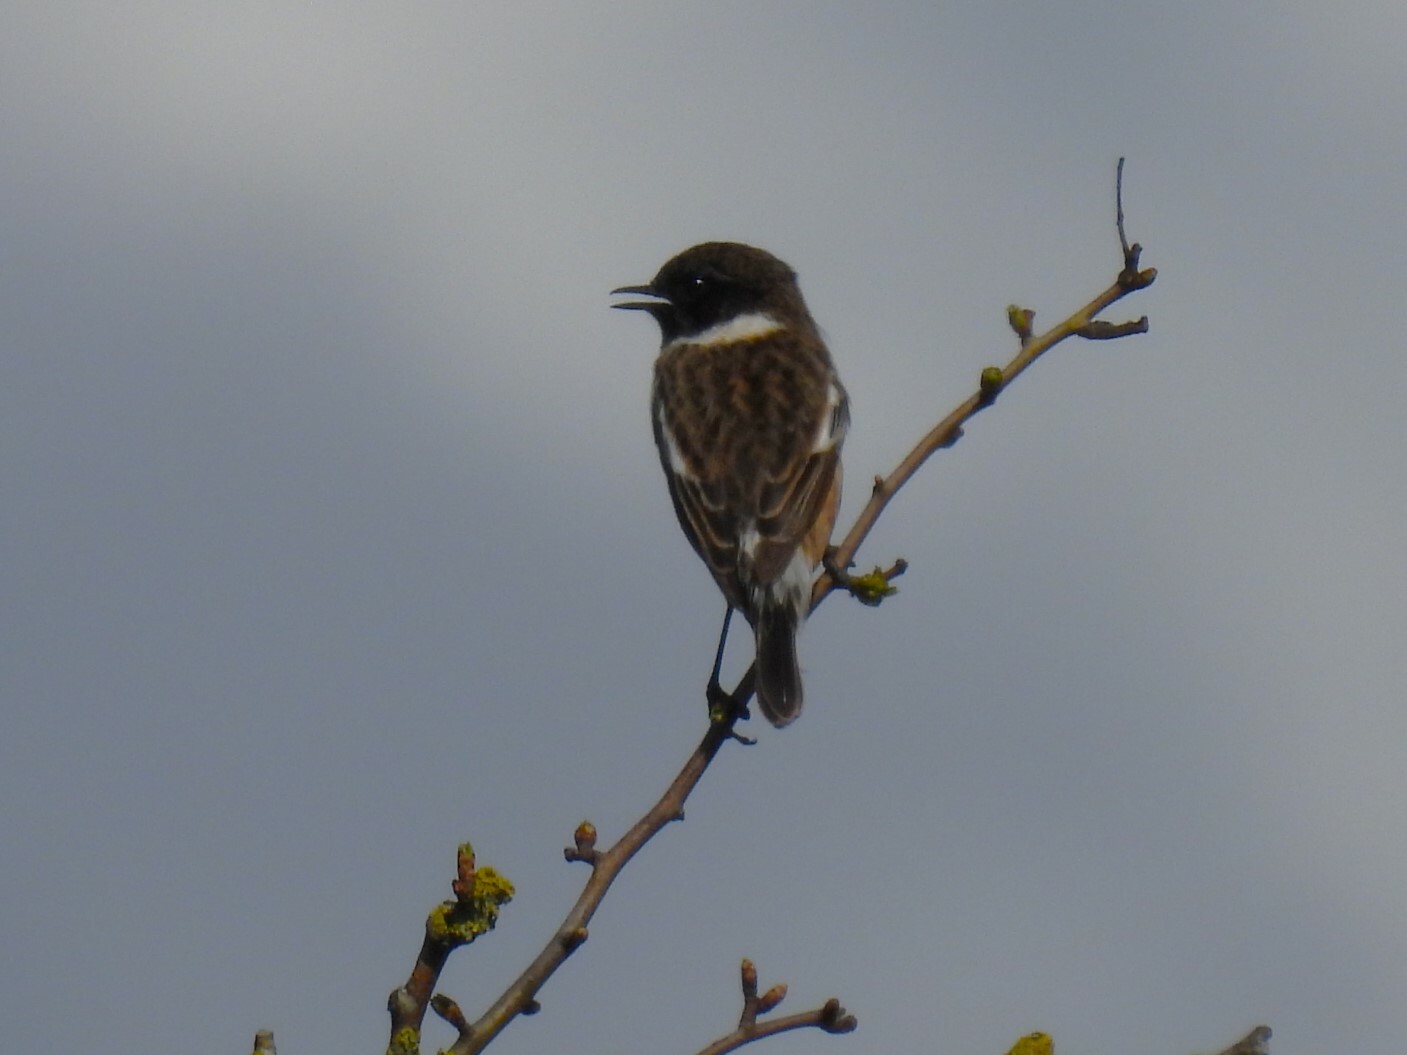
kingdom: Animalia
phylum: Chordata
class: Aves
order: Passeriformes
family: Muscicapidae
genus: Saxicola
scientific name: Saxicola rubicola
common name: European stonechat
